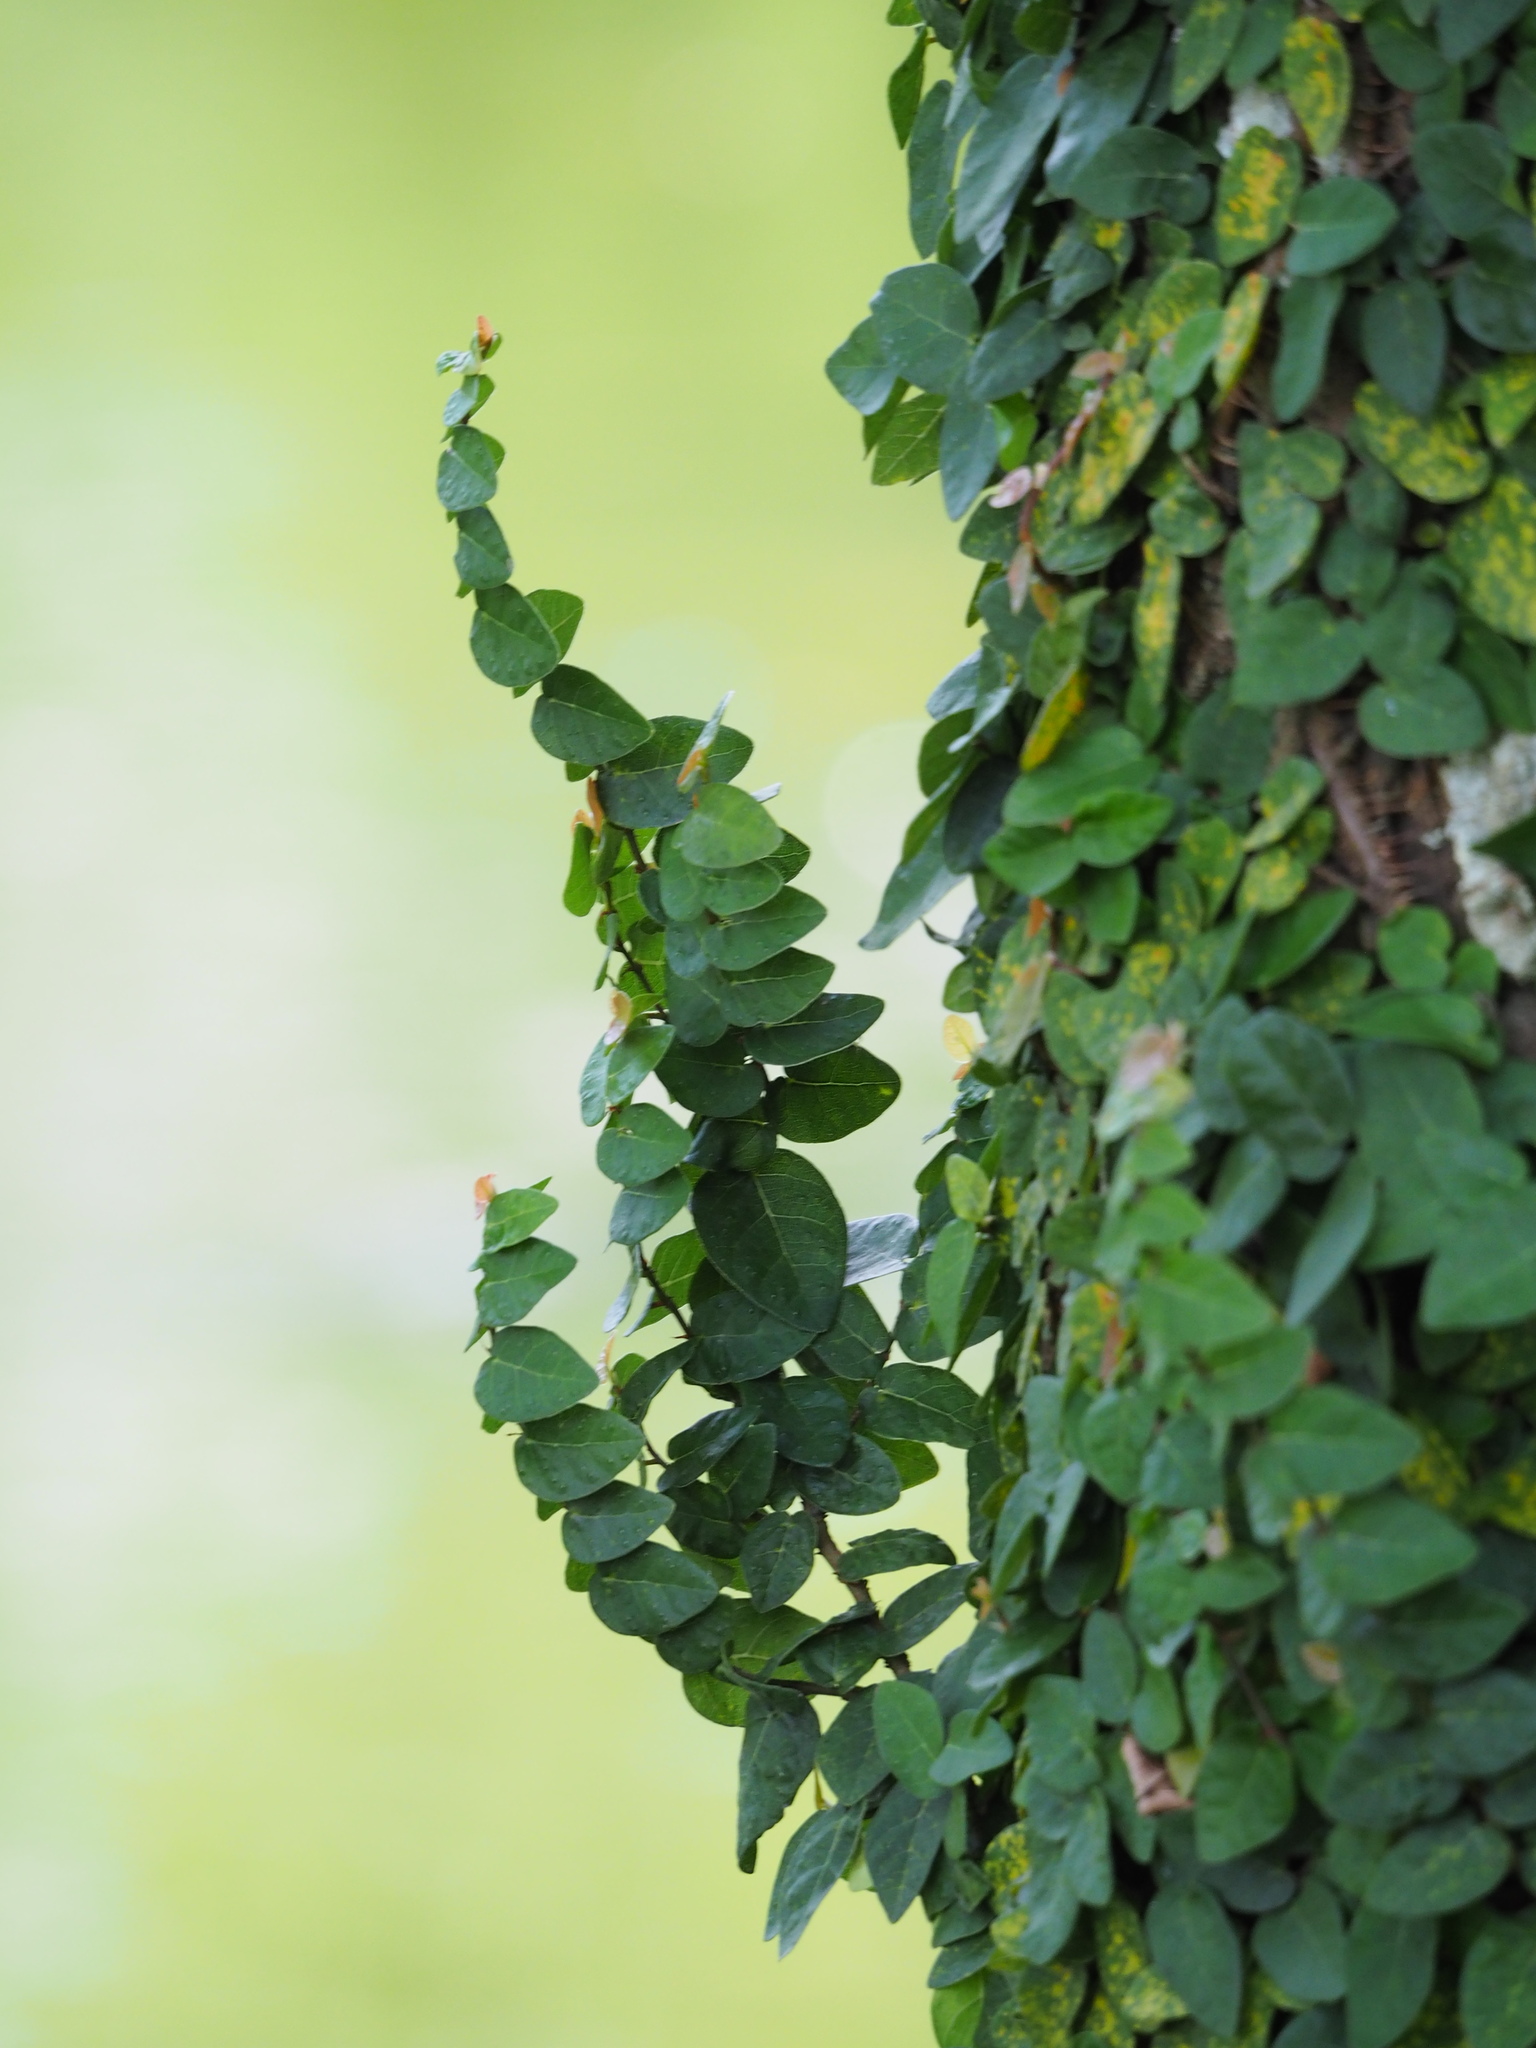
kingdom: Plantae
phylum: Tracheophyta
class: Magnoliopsida
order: Rosales
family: Moraceae
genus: Ficus
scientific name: Ficus pumila
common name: Climbingfig
